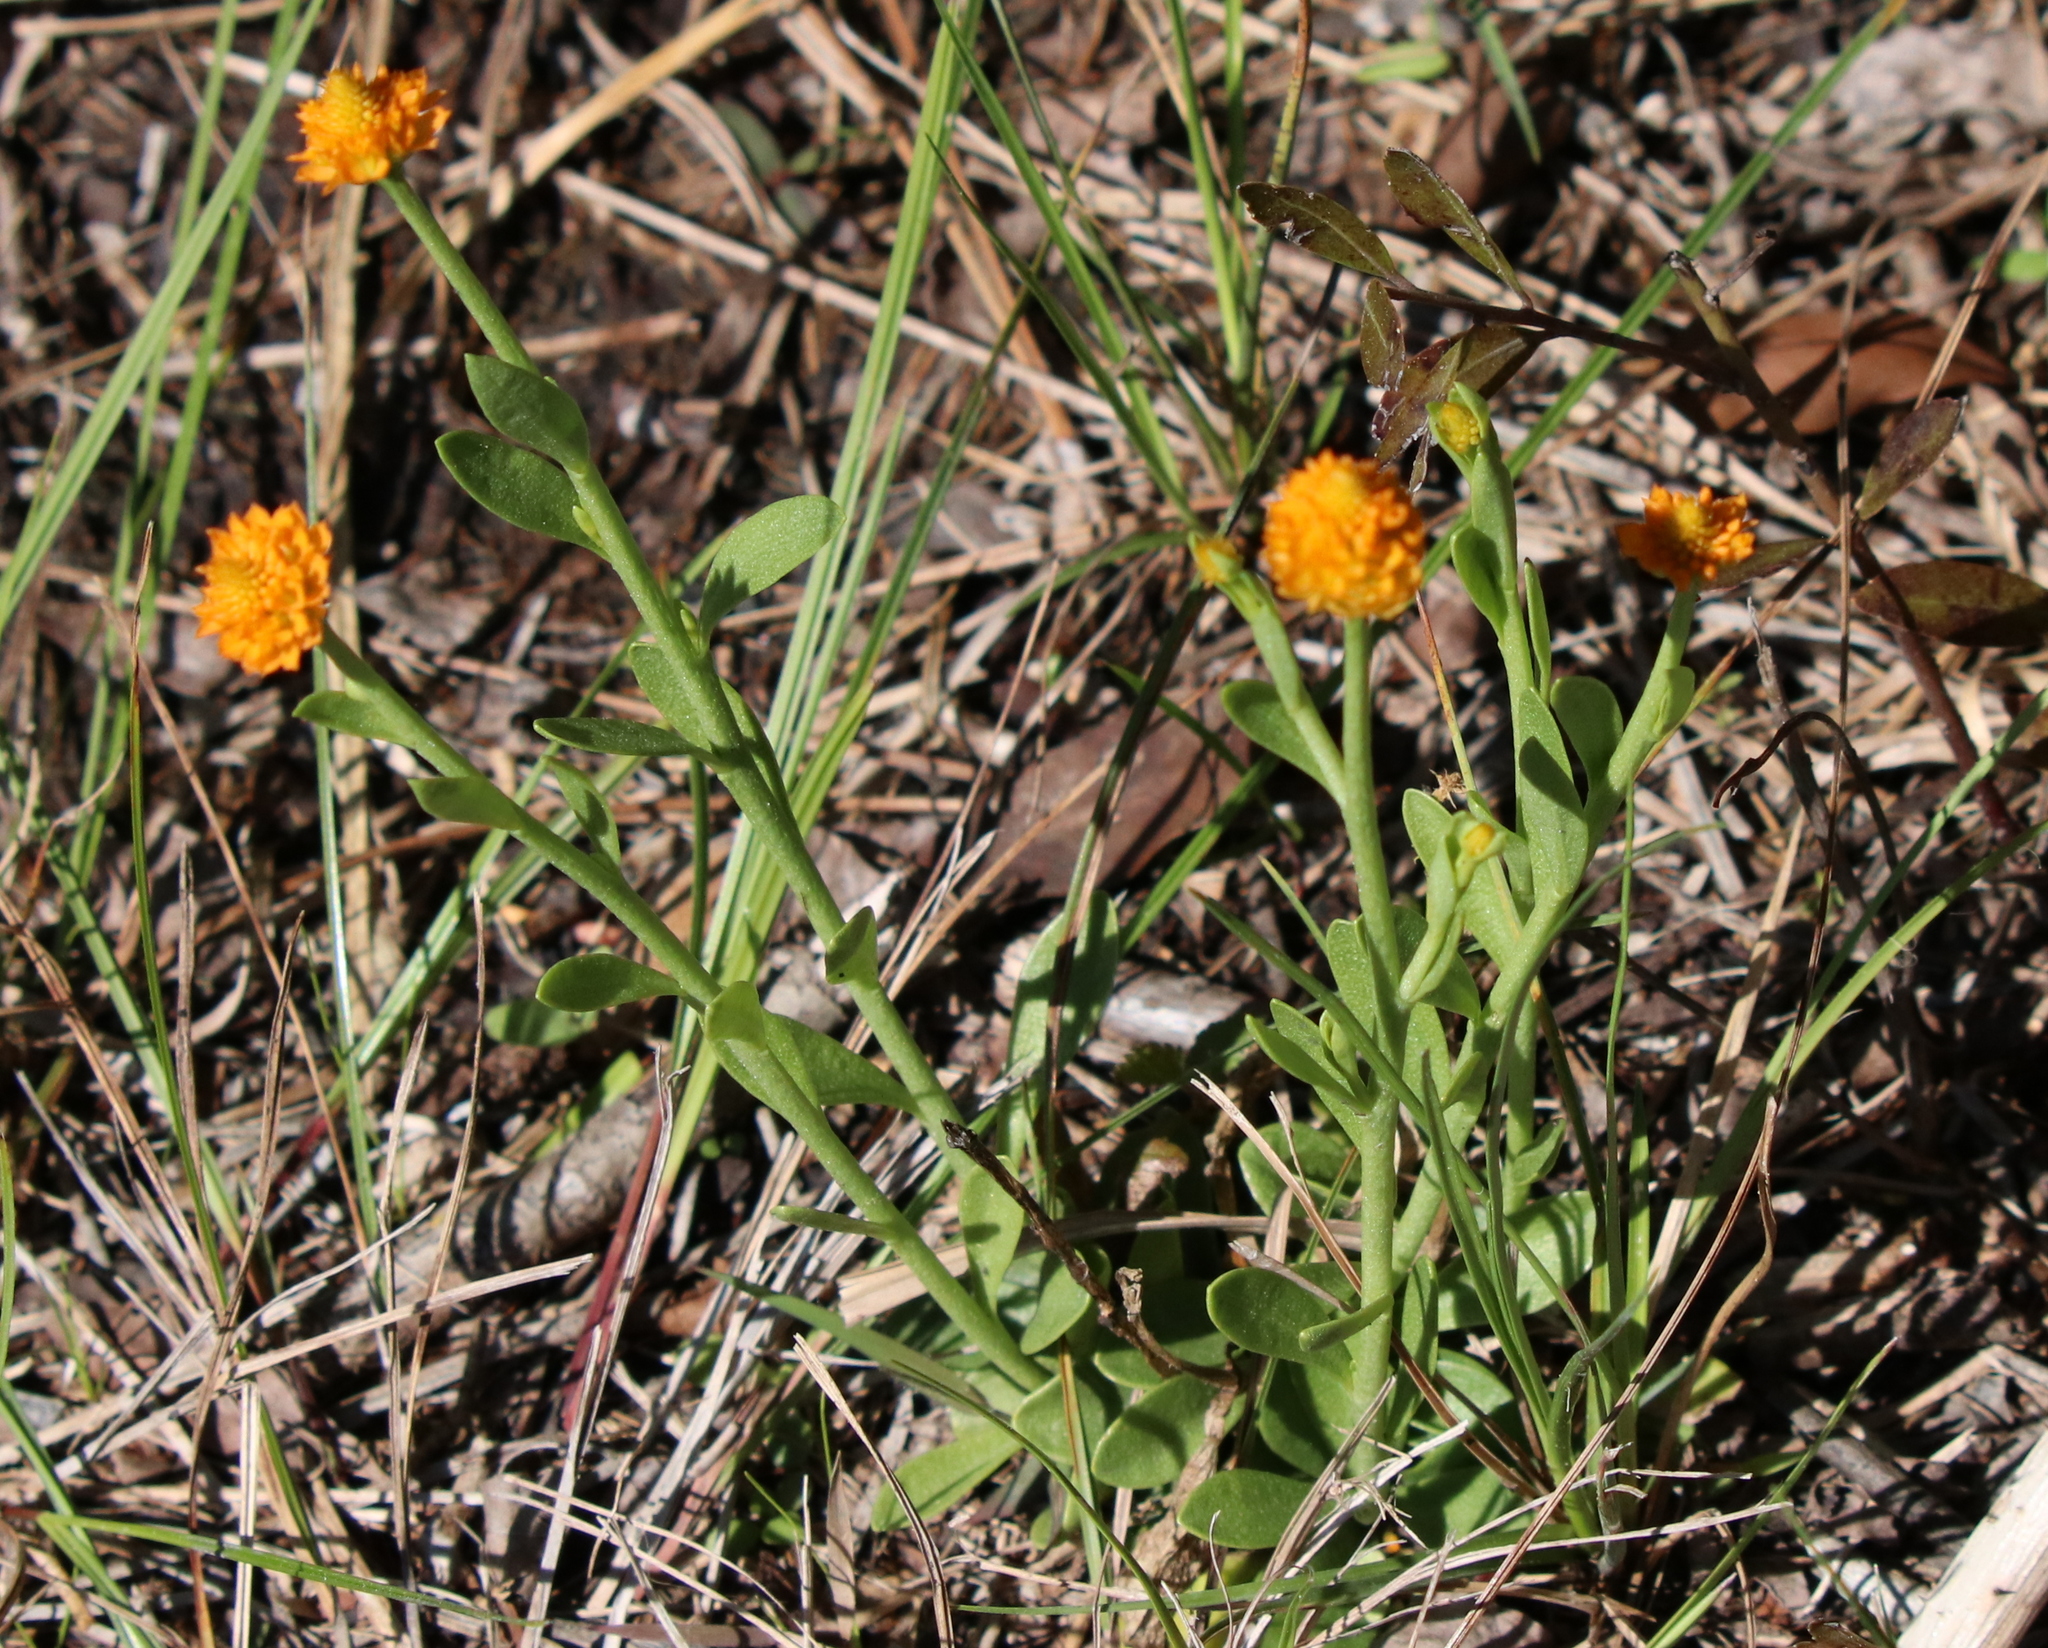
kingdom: Plantae
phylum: Tracheophyta
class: Magnoliopsida
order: Fabales
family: Polygalaceae
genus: Polygala
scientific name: Polygala lutea
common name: Orange milkwort
